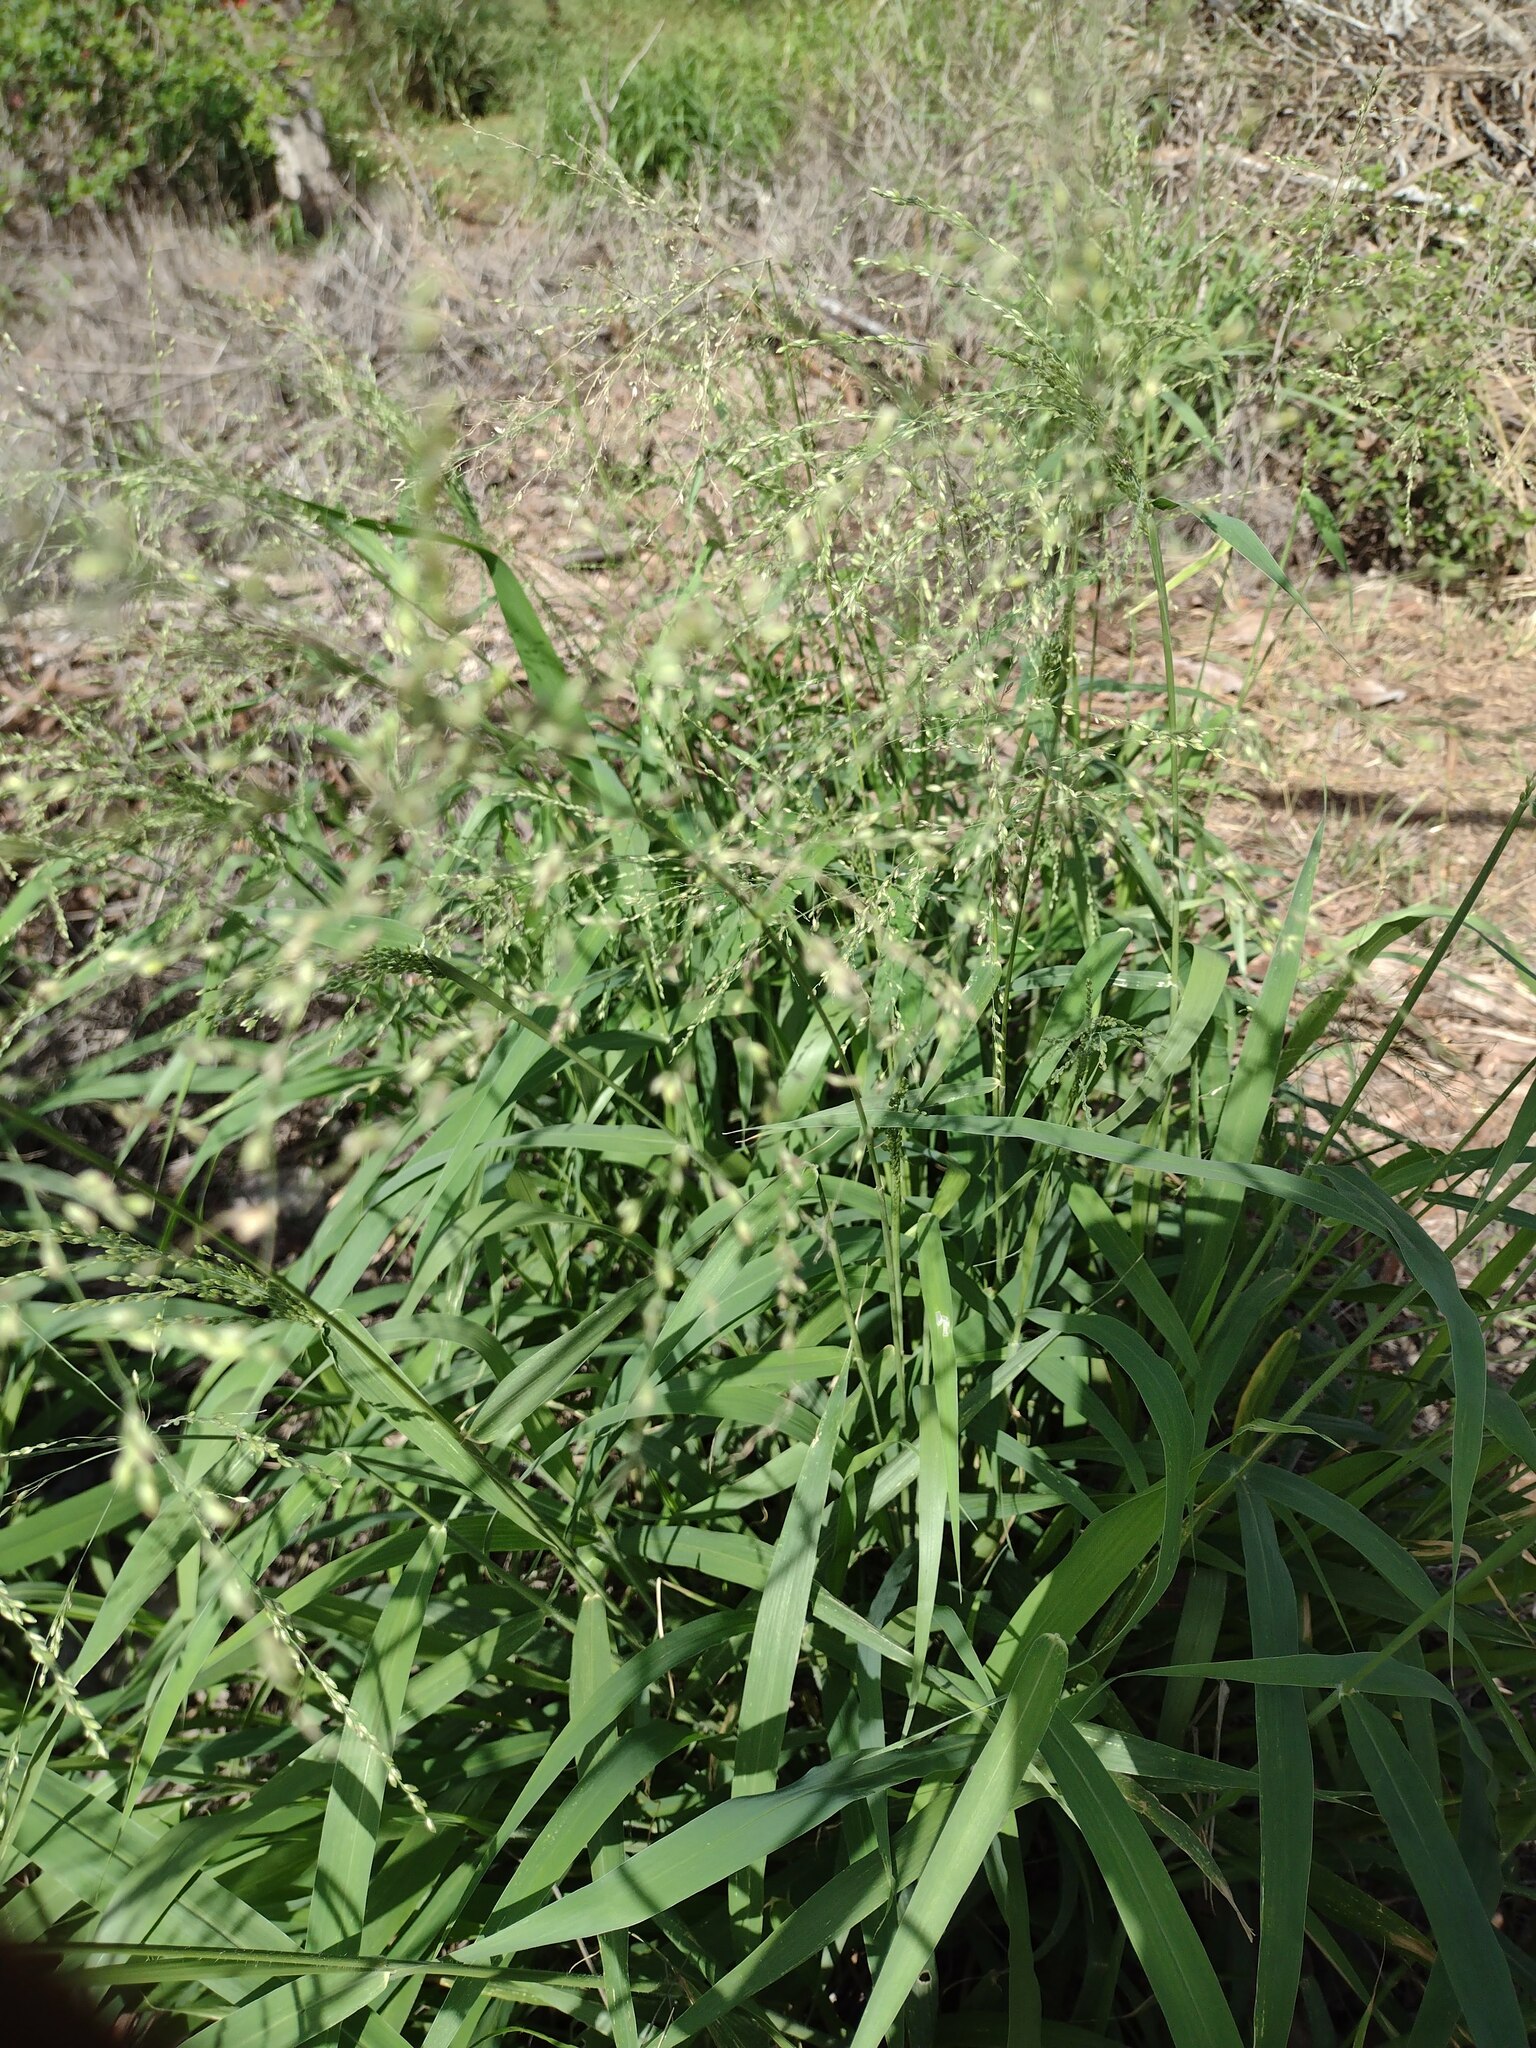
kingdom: Plantae
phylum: Tracheophyta
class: Liliopsida
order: Poales
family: Poaceae
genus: Megathyrsus
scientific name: Megathyrsus maximus
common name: Guineagrass
